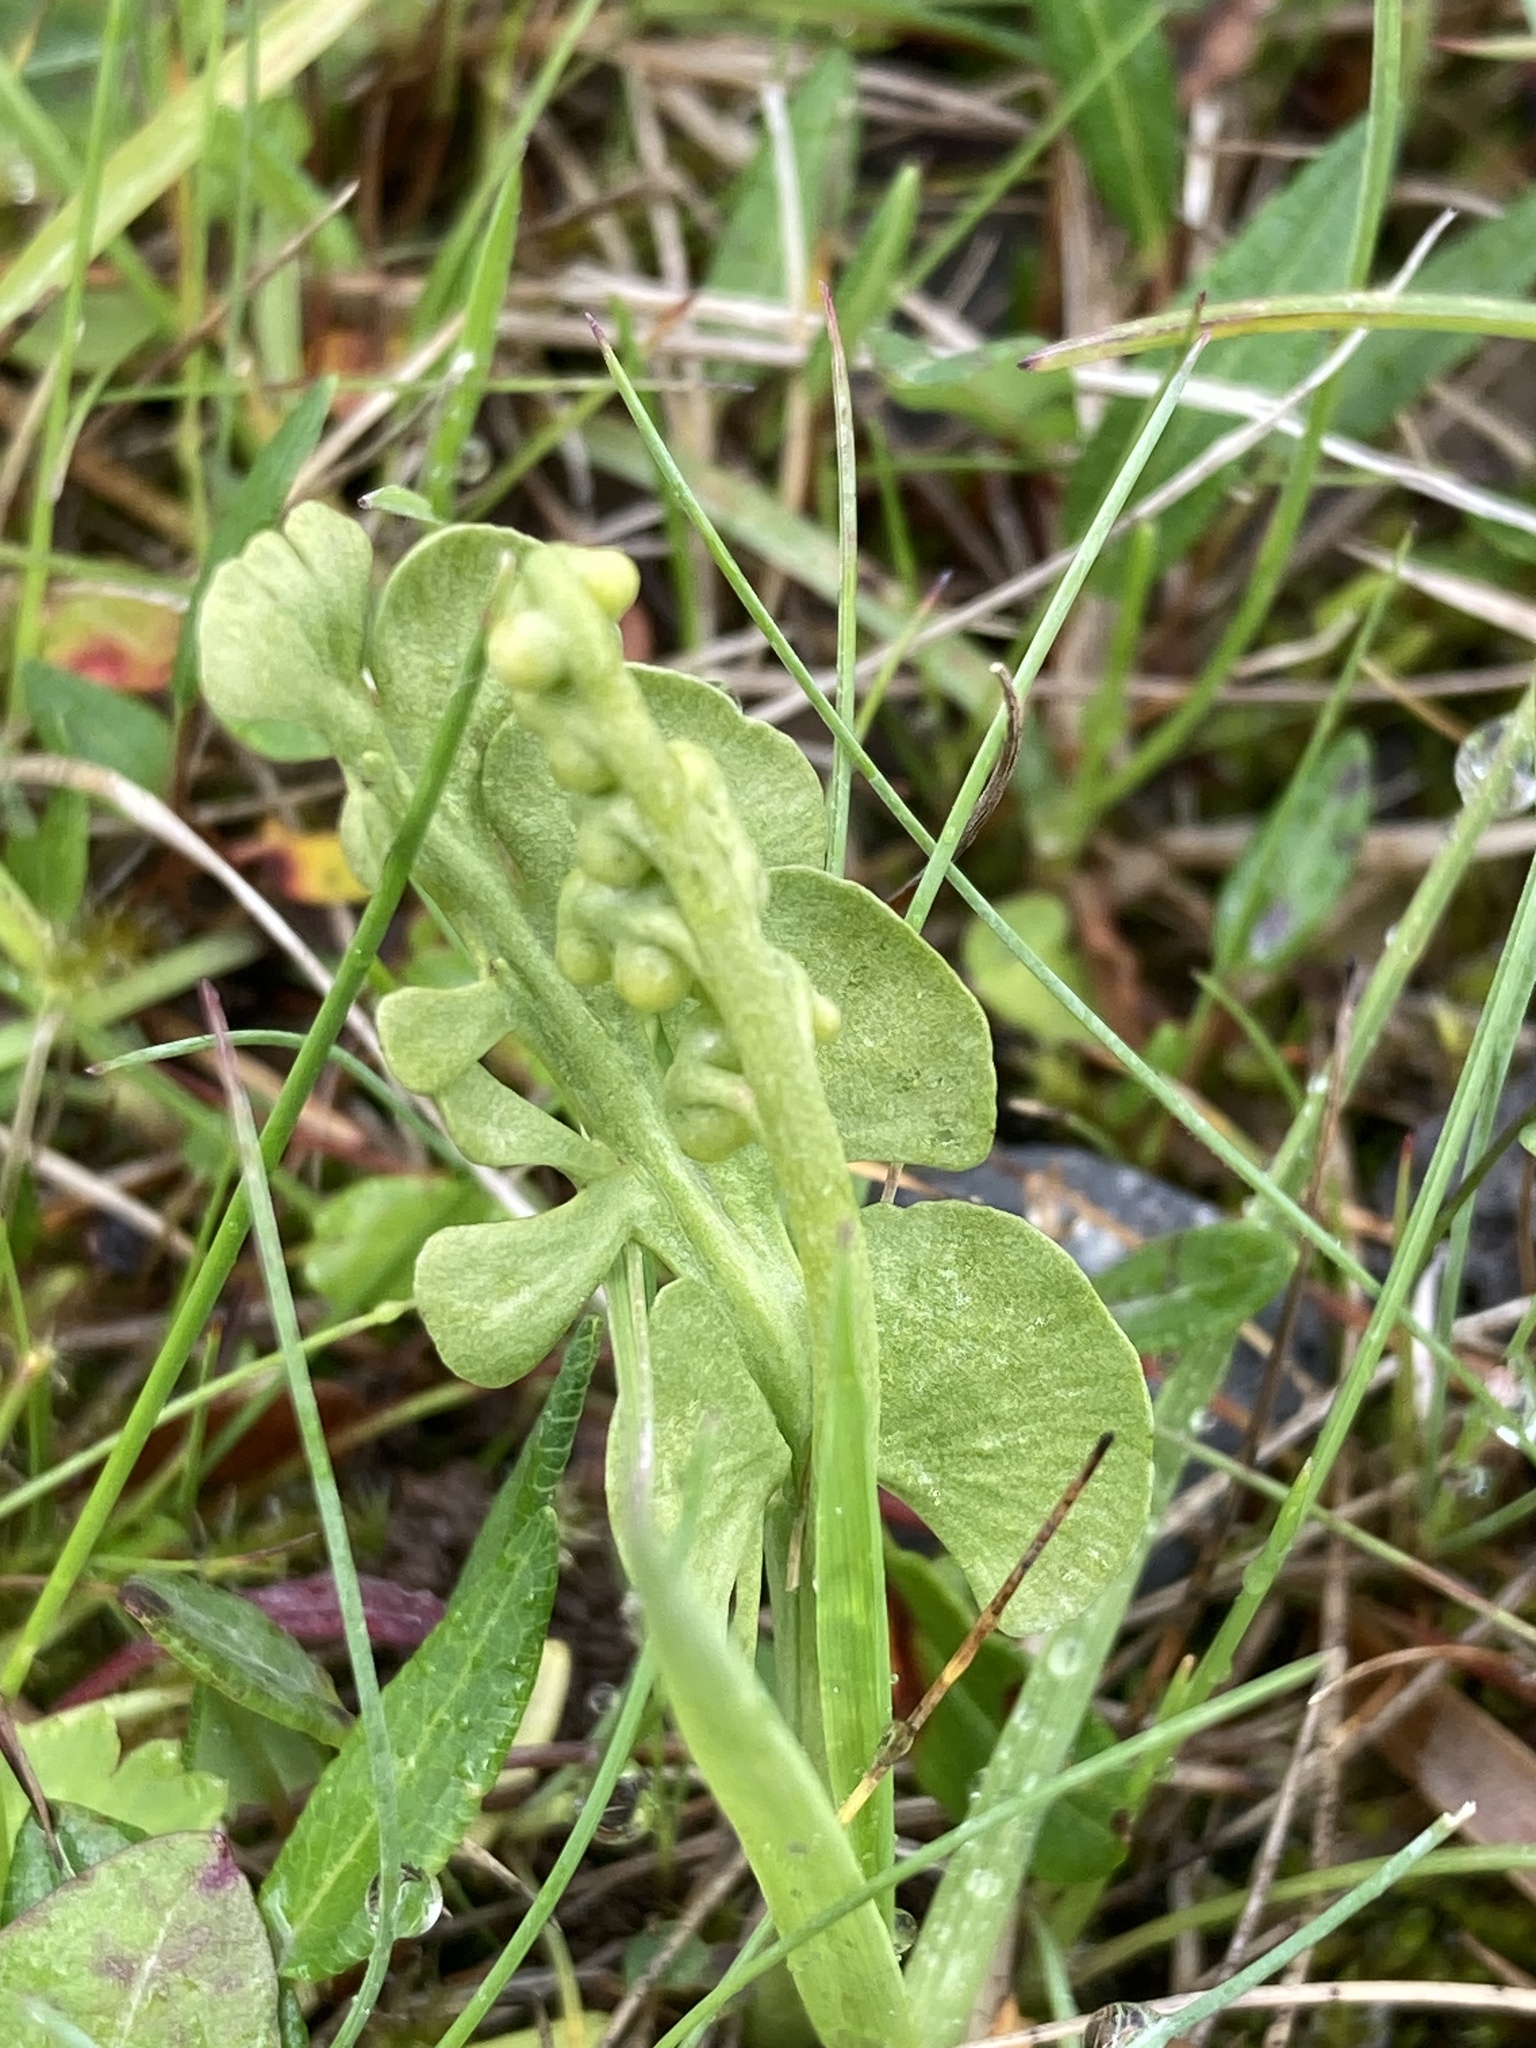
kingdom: Plantae
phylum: Tracheophyta
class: Polypodiopsida
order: Ophioglossales
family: Ophioglossaceae
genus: Botrychium
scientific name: Botrychium lunaria
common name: Moonwort
